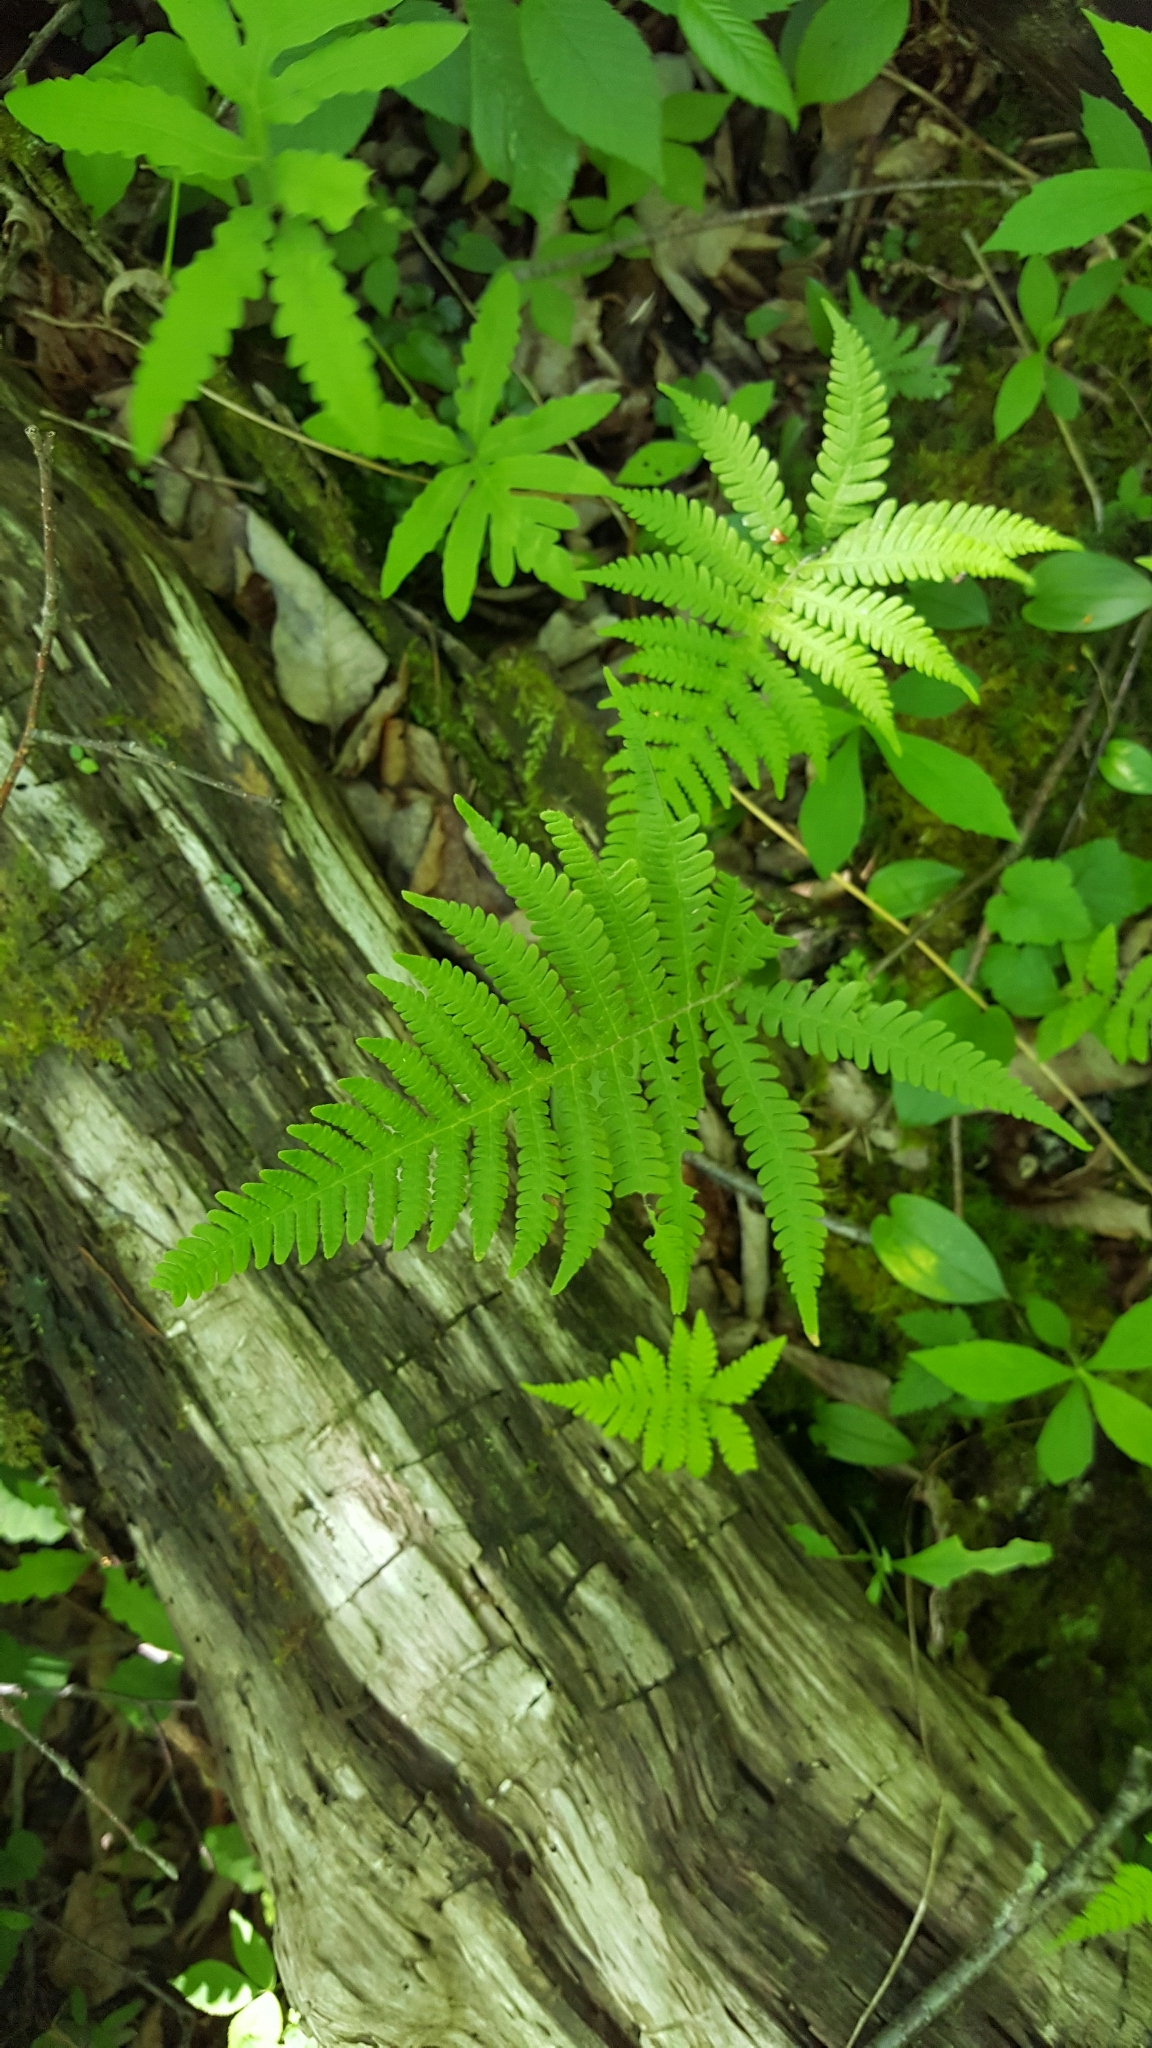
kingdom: Plantae
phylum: Tracheophyta
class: Polypodiopsida
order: Polypodiales
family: Thelypteridaceae
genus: Phegopteris
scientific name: Phegopteris connectilis
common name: Beech fern
